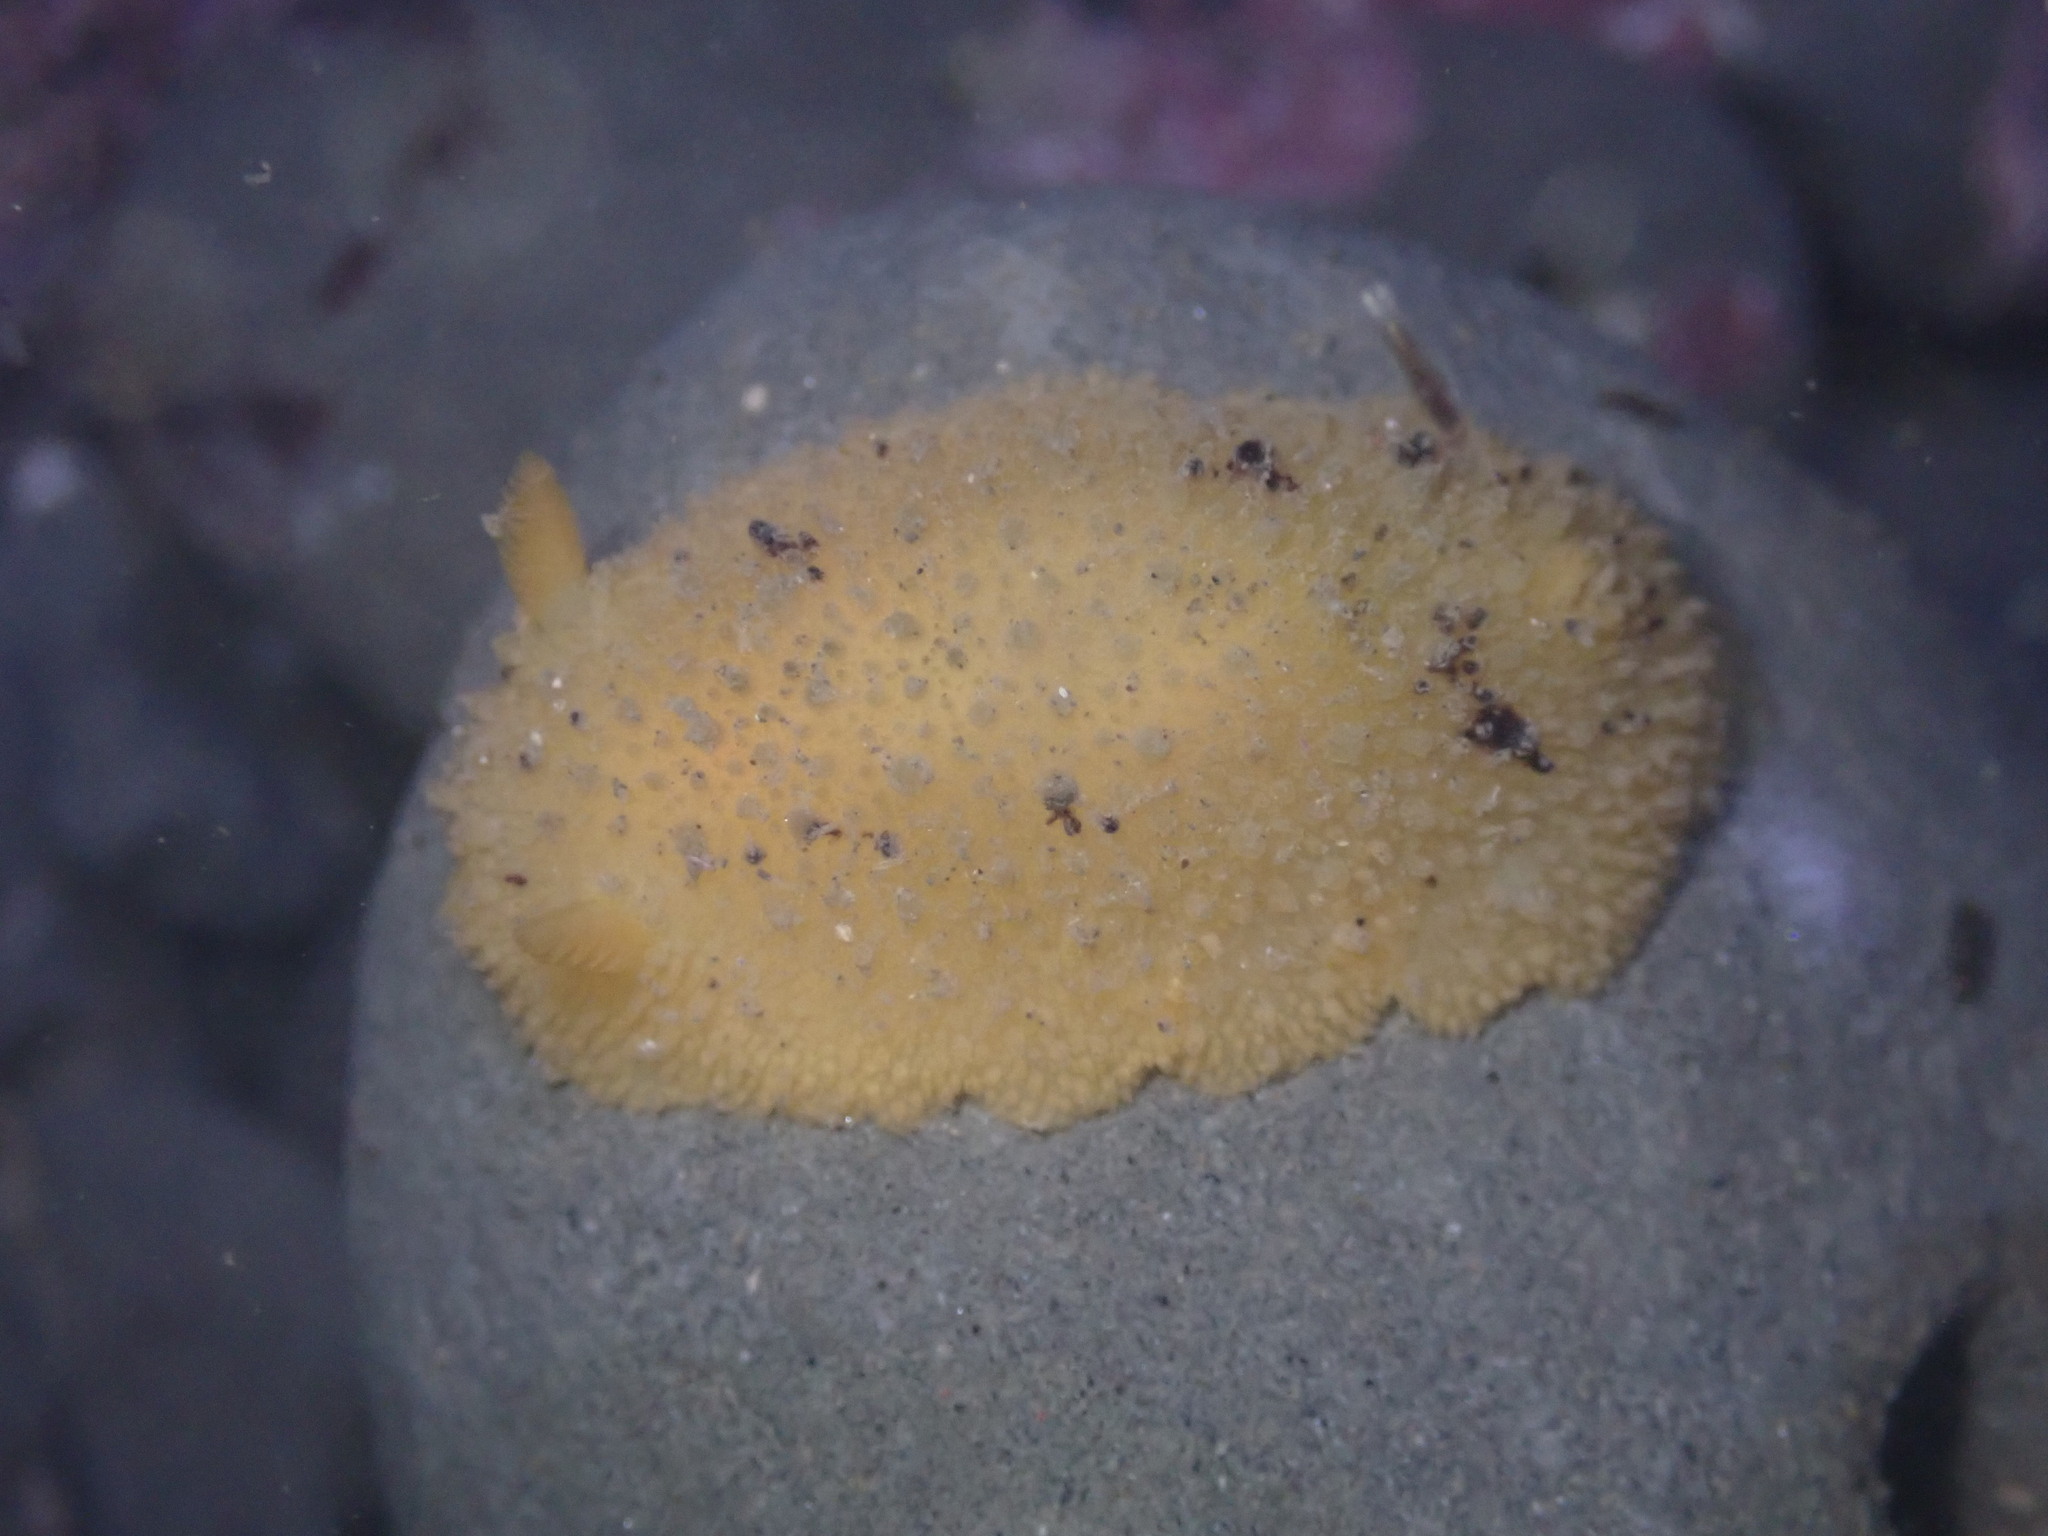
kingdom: Animalia
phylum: Mollusca
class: Gastropoda
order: Nudibranchia
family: Dorididae
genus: Doris
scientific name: Doris montereyensis
